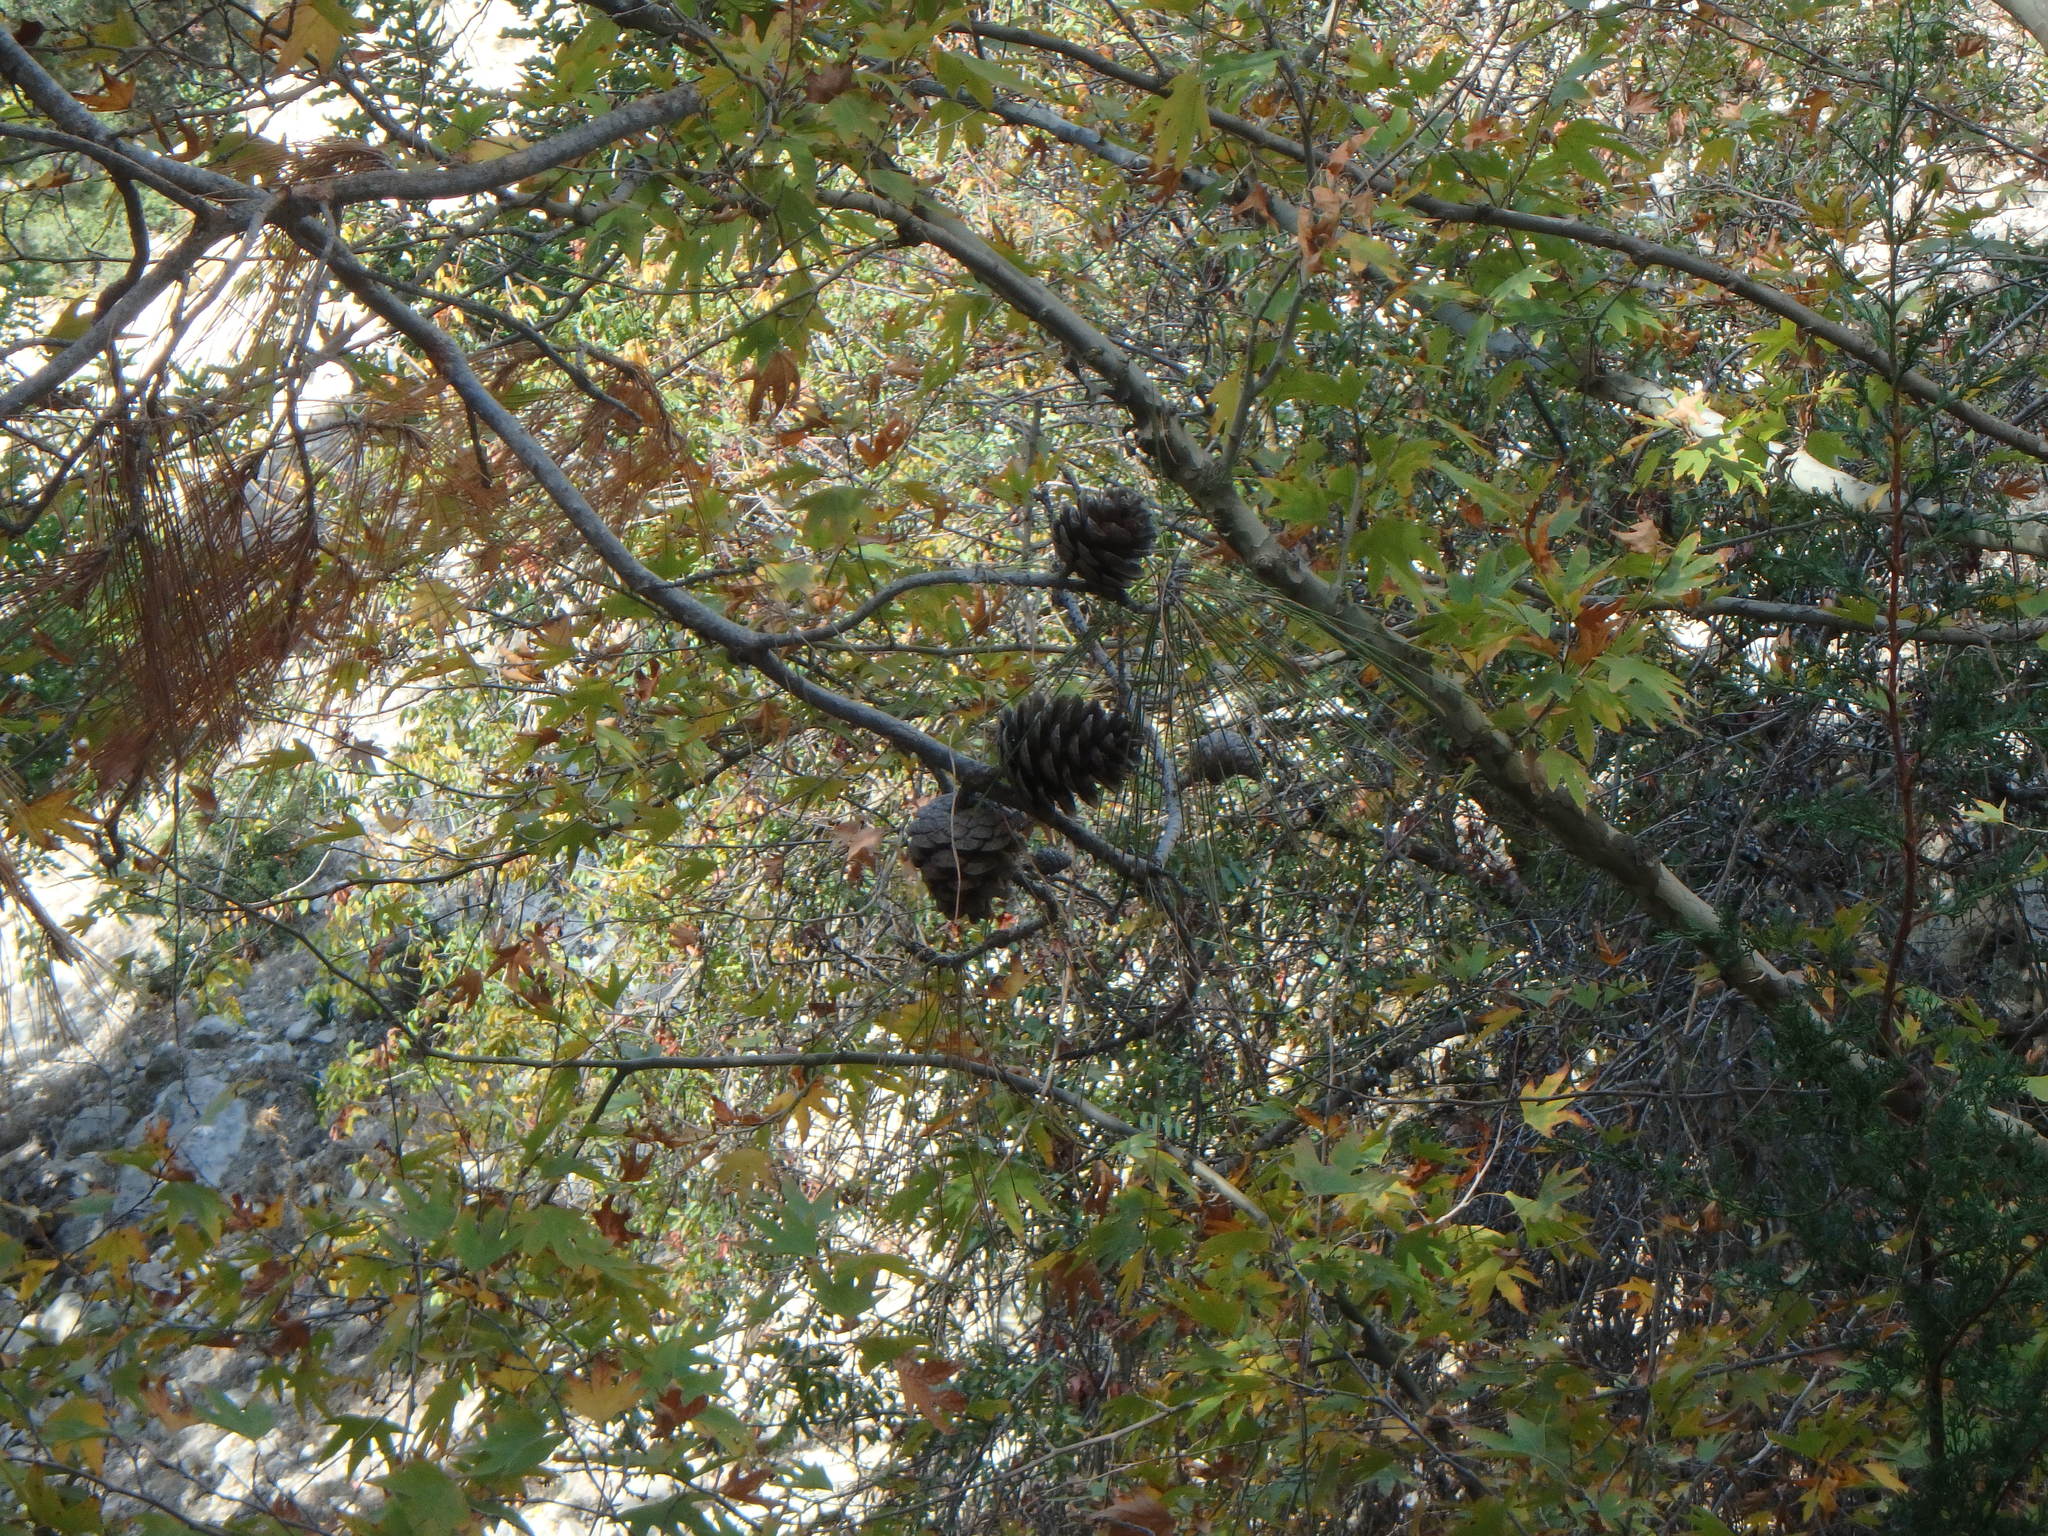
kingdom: Plantae
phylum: Tracheophyta
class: Pinopsida
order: Pinales
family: Pinaceae
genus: Pinus
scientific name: Pinus brutia
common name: Turkish pine
